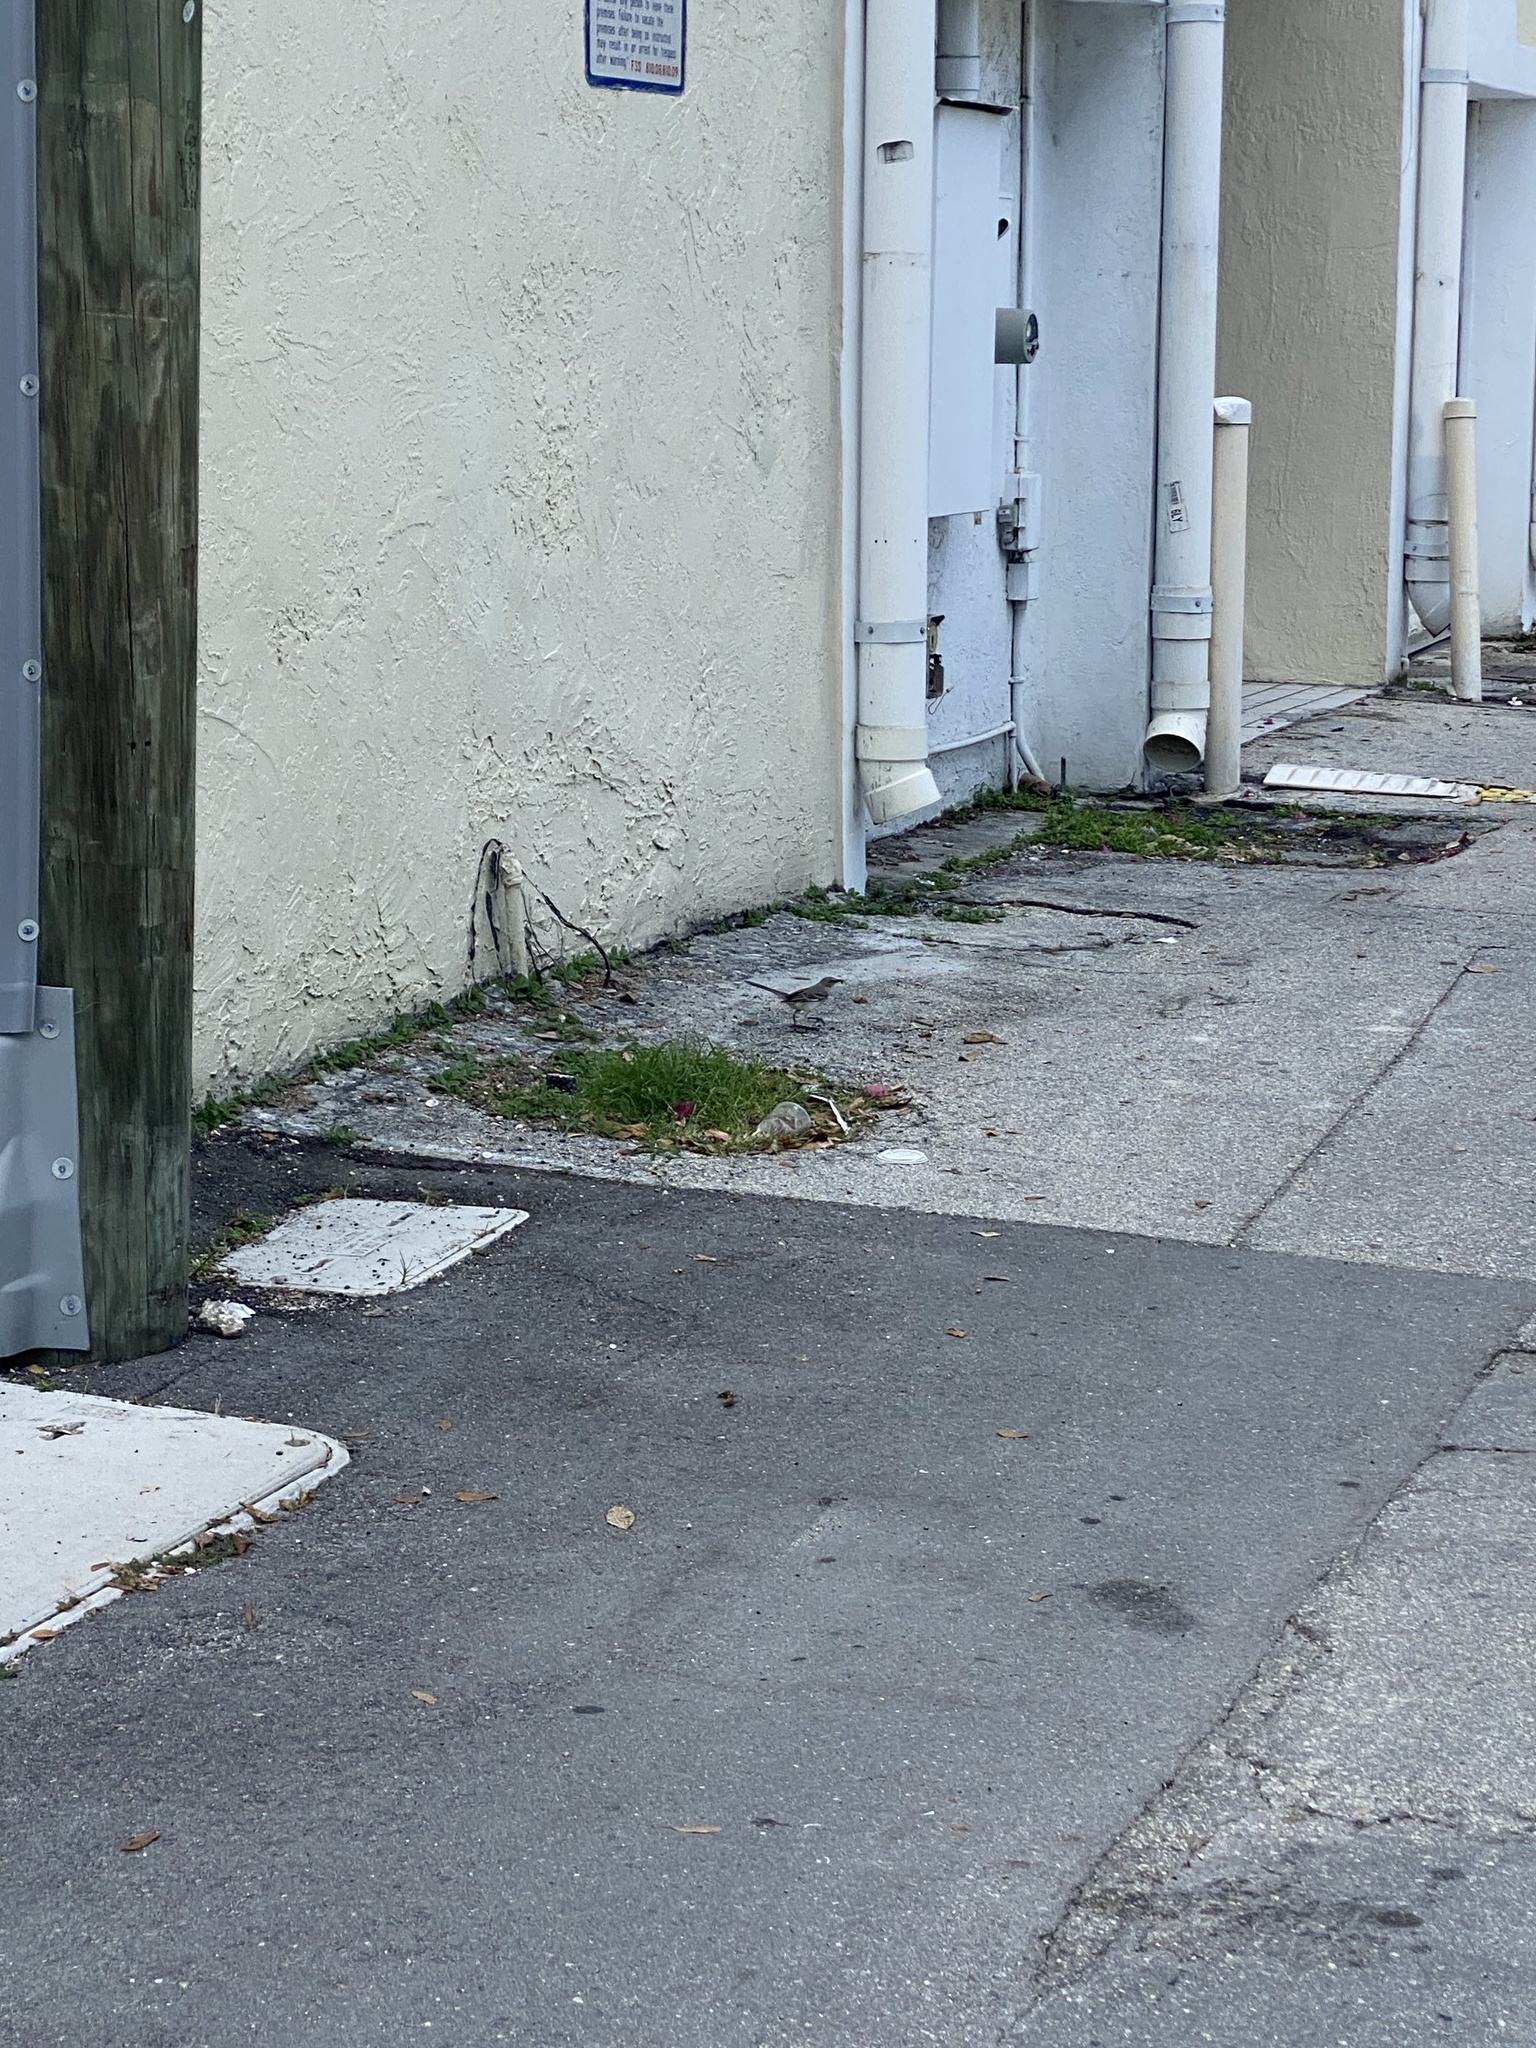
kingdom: Animalia
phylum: Chordata
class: Aves
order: Passeriformes
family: Mimidae
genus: Mimus
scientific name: Mimus polyglottos
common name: Northern mockingbird
